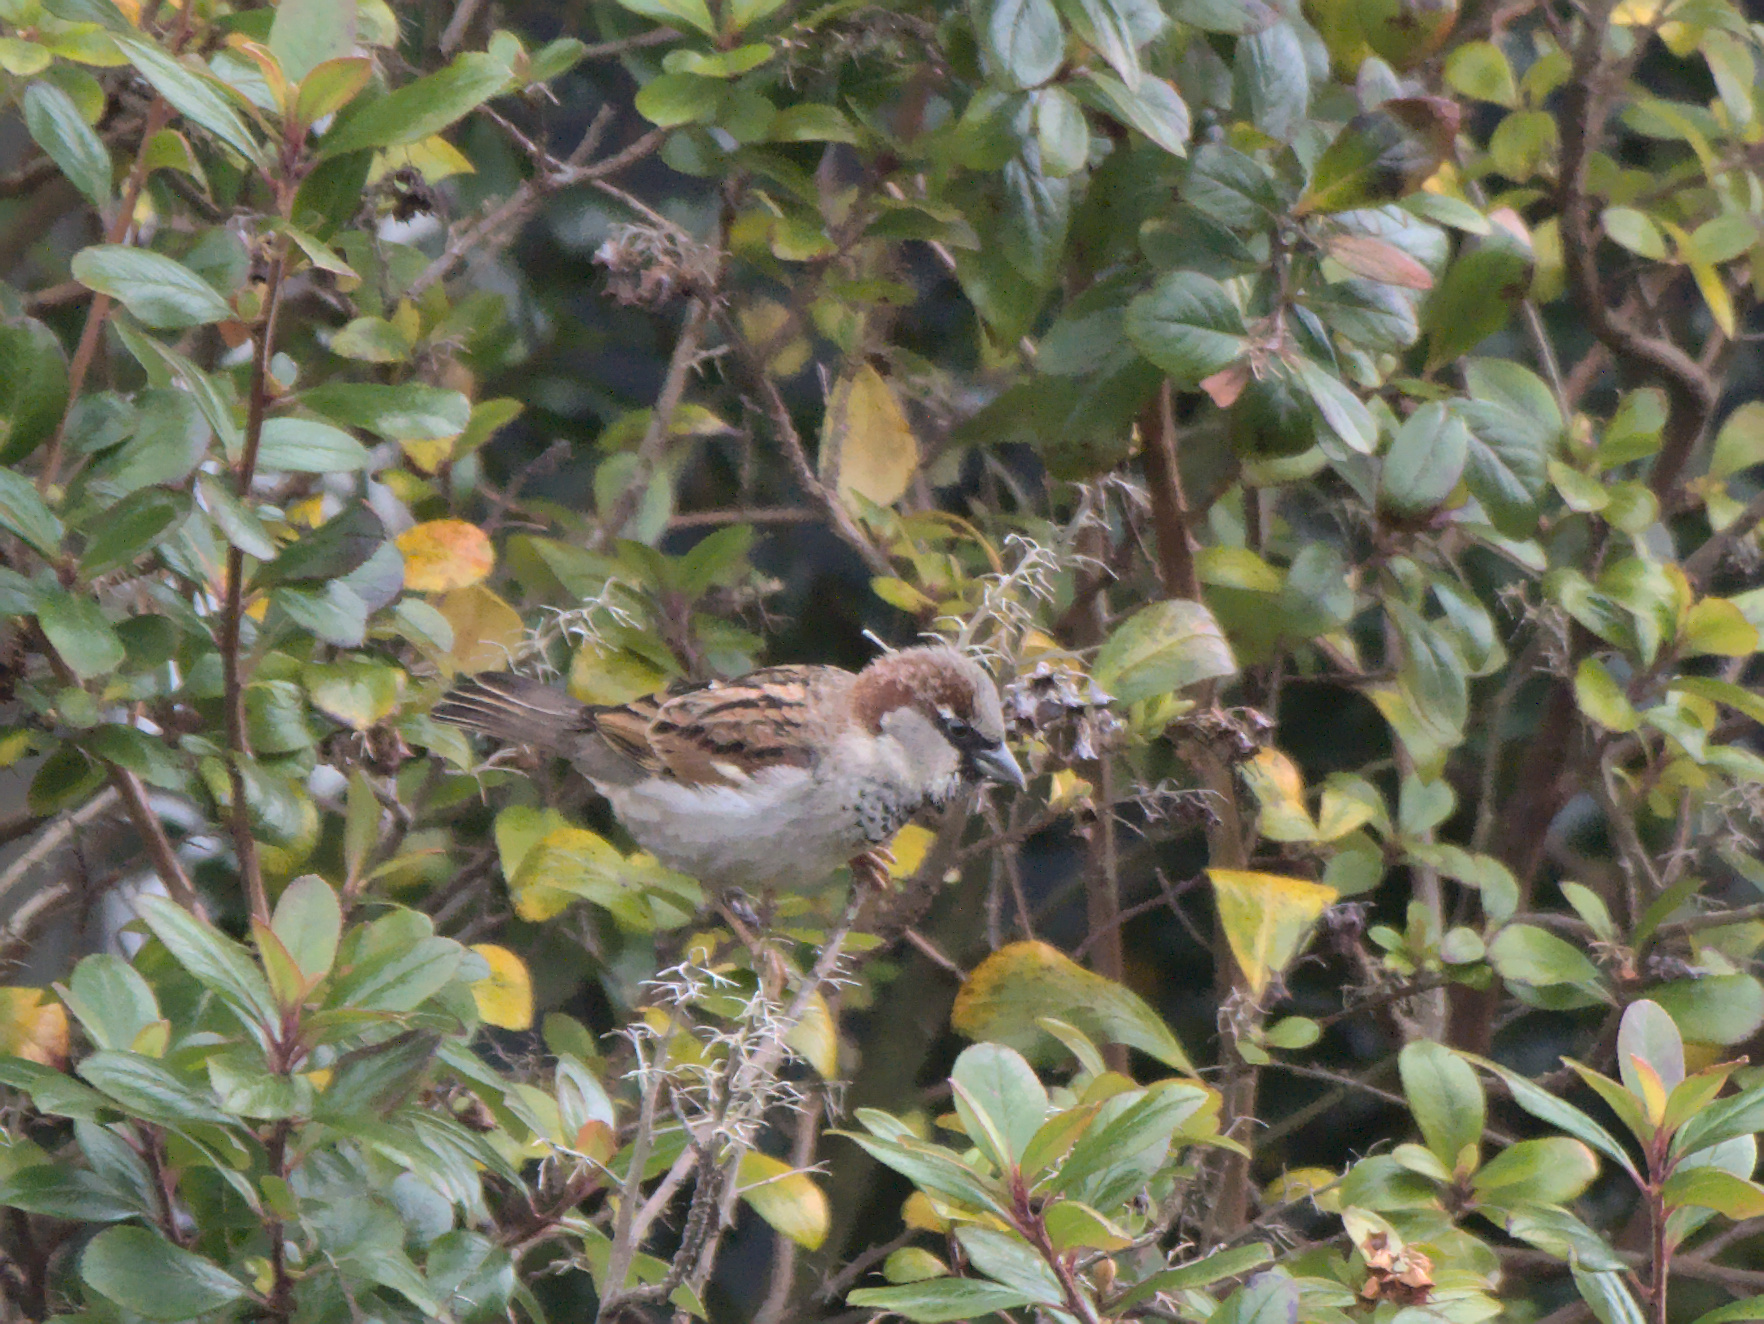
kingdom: Animalia
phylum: Chordata
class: Aves
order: Passeriformes
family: Passeridae
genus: Passer
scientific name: Passer domesticus
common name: House sparrow
